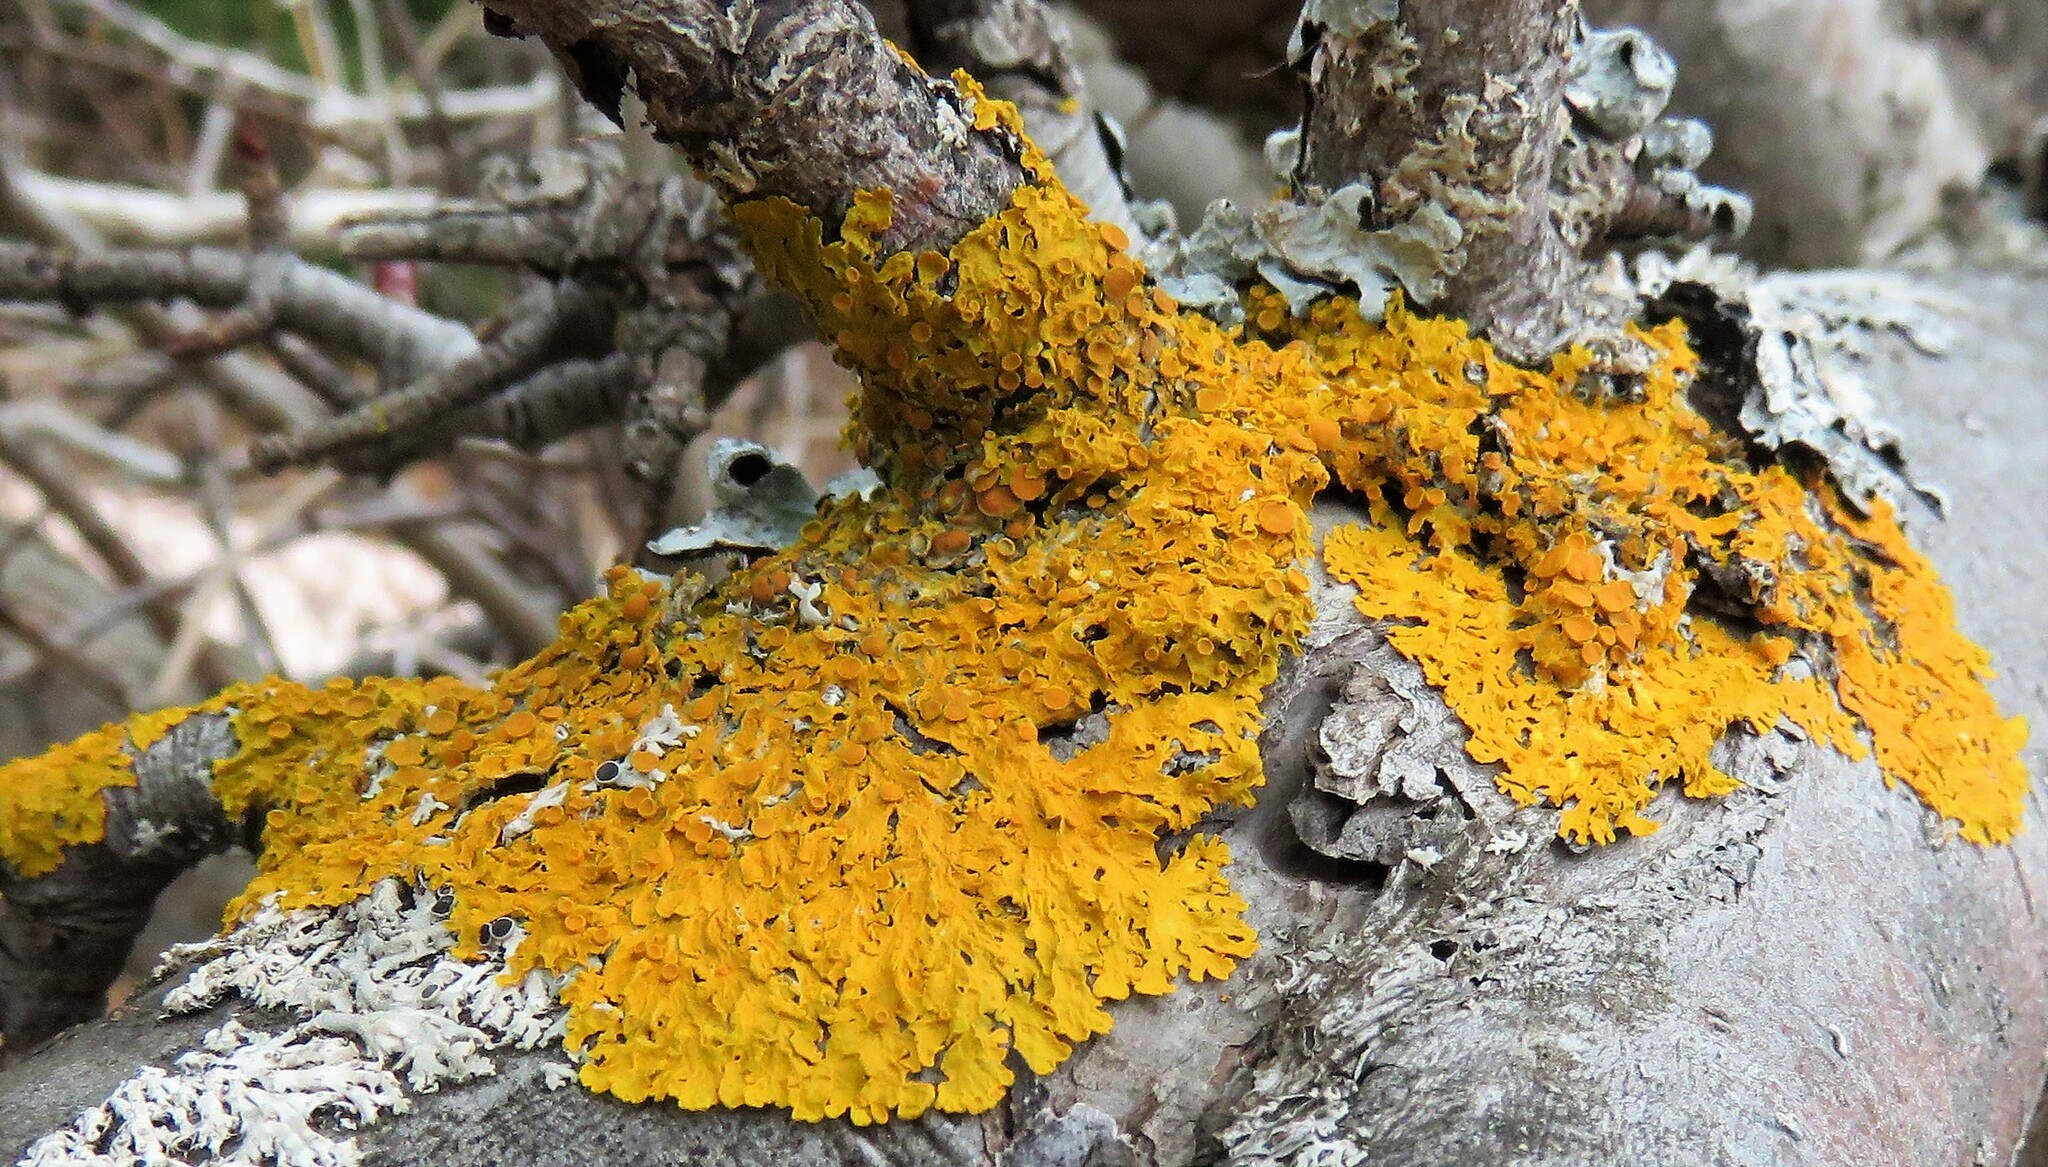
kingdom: Fungi
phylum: Ascomycota
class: Lecanoromycetes
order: Teloschistales
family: Teloschistaceae
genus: Xanthoria
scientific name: Xanthoria parietina
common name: Common orange lichen
